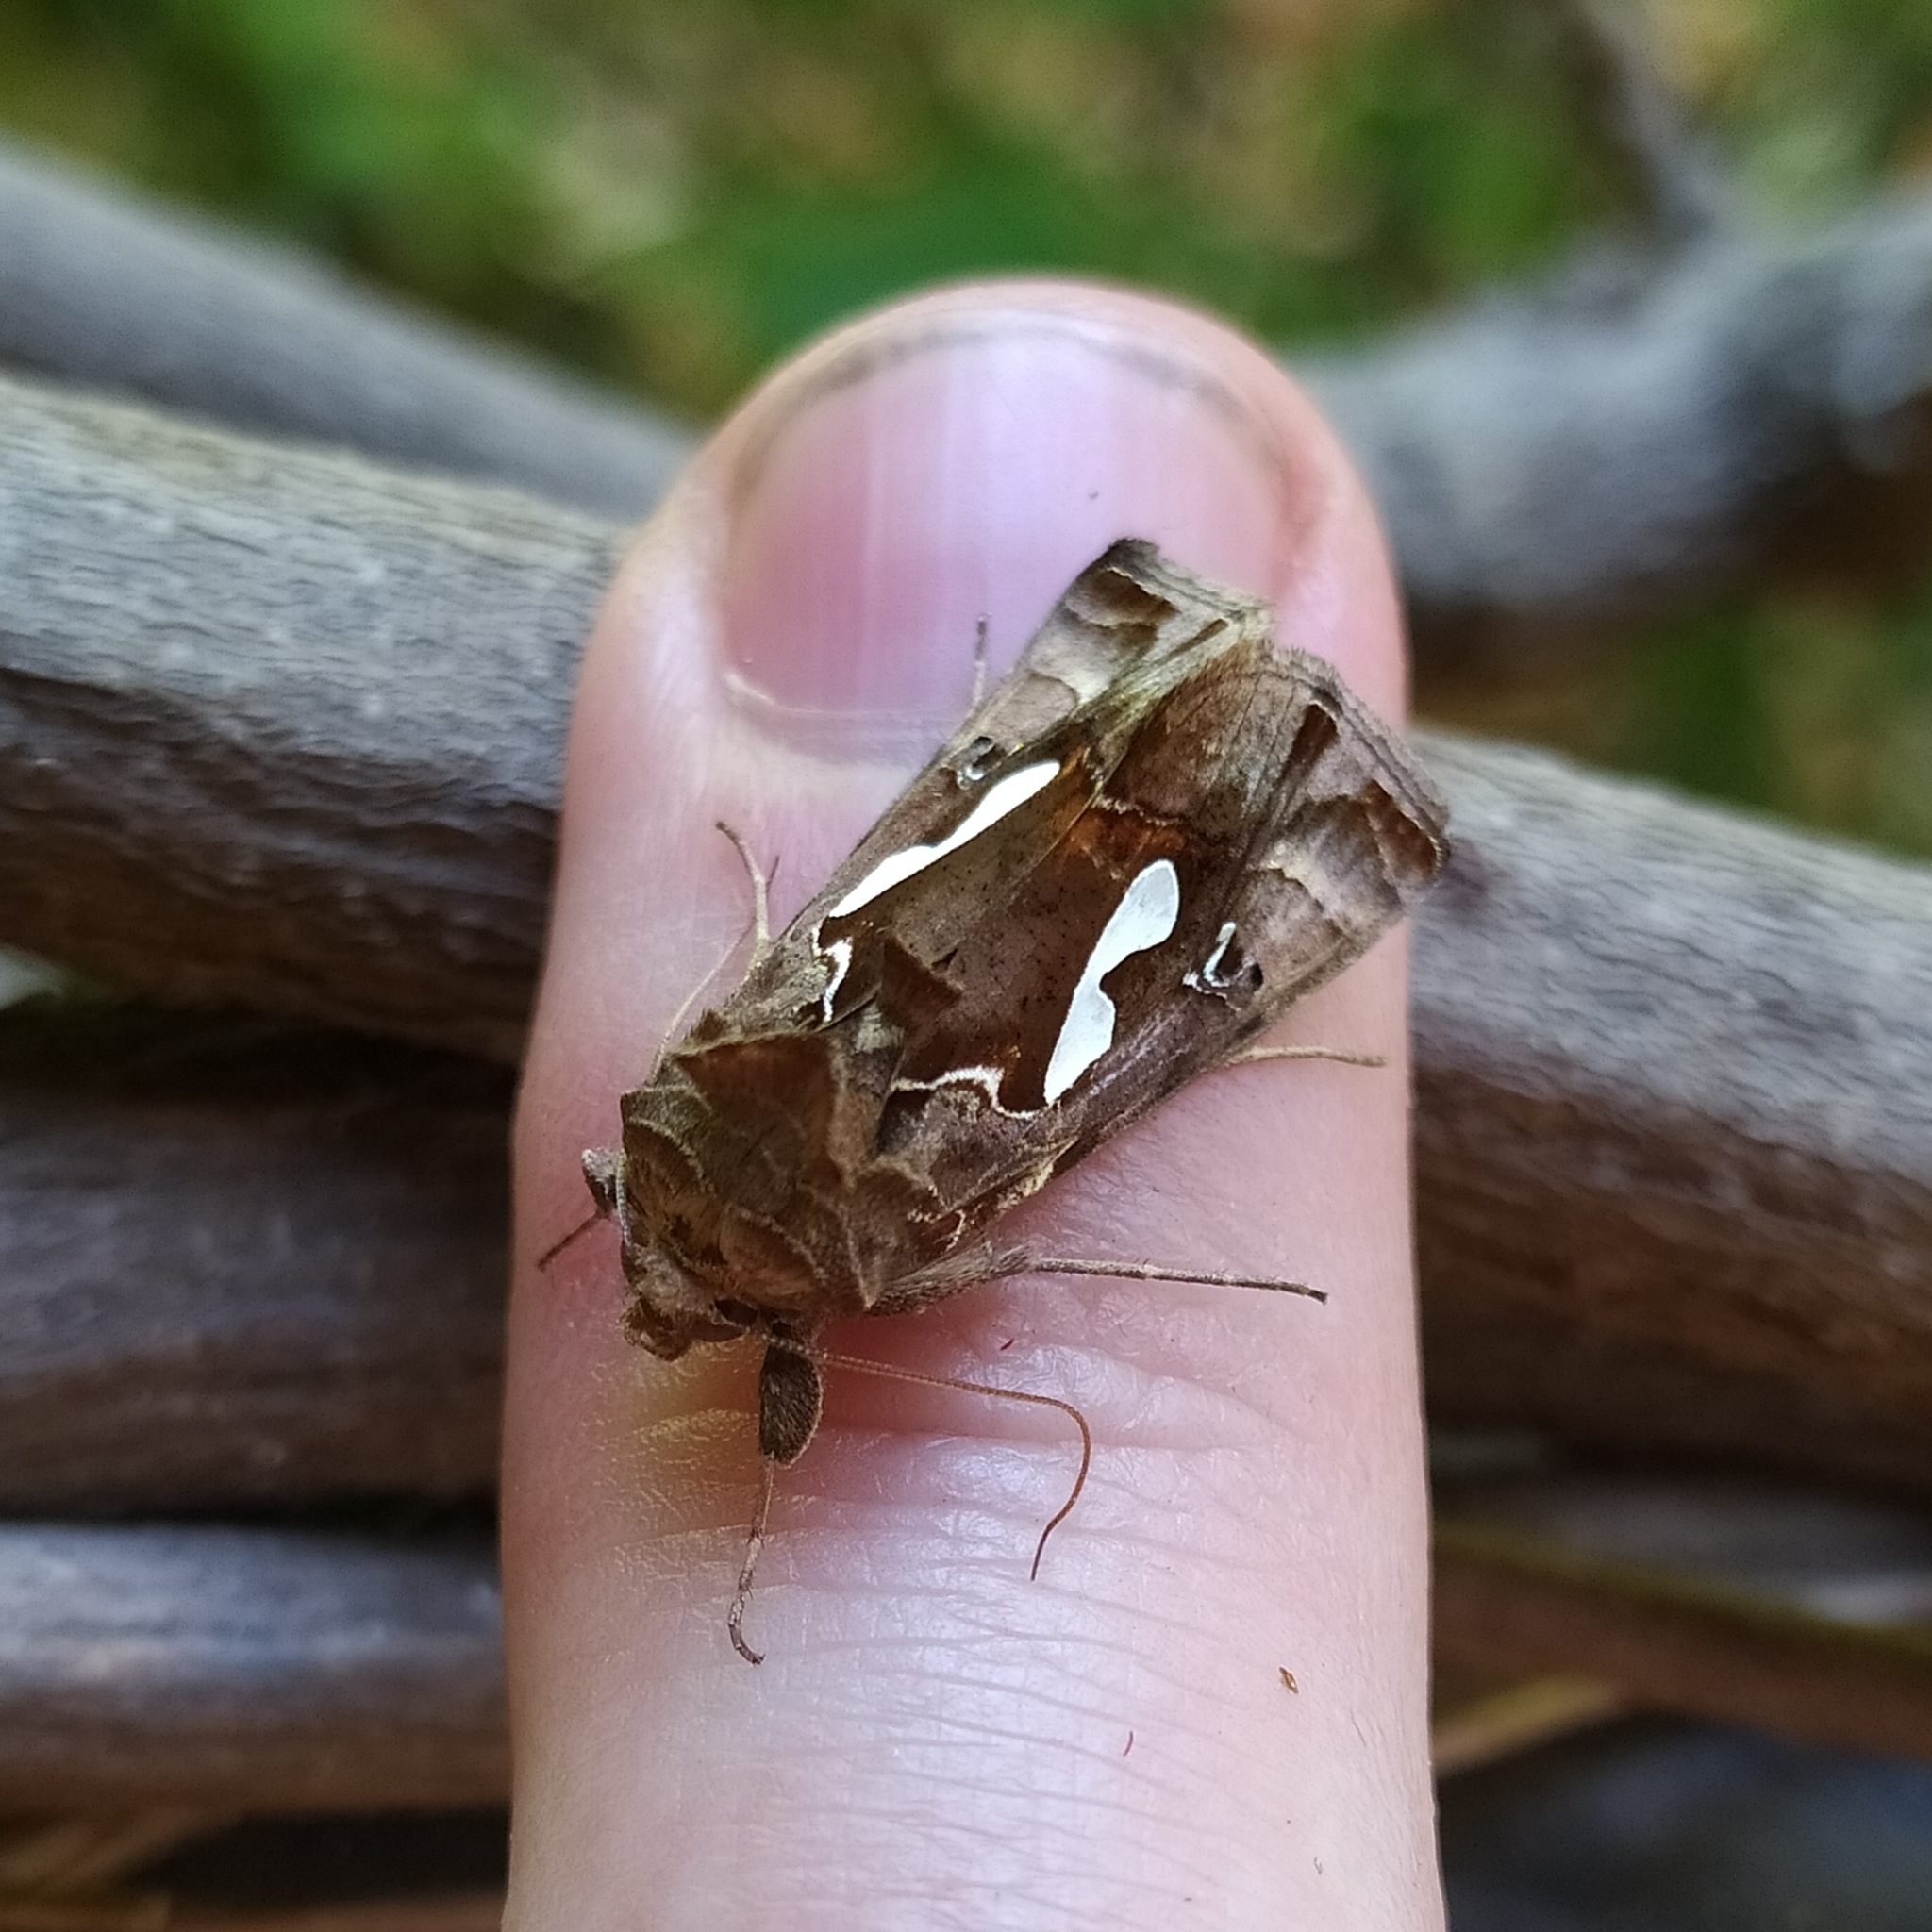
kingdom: Animalia
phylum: Arthropoda
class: Insecta
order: Lepidoptera
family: Noctuidae
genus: Megalographa
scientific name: Megalographa biloba
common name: Cutworm
